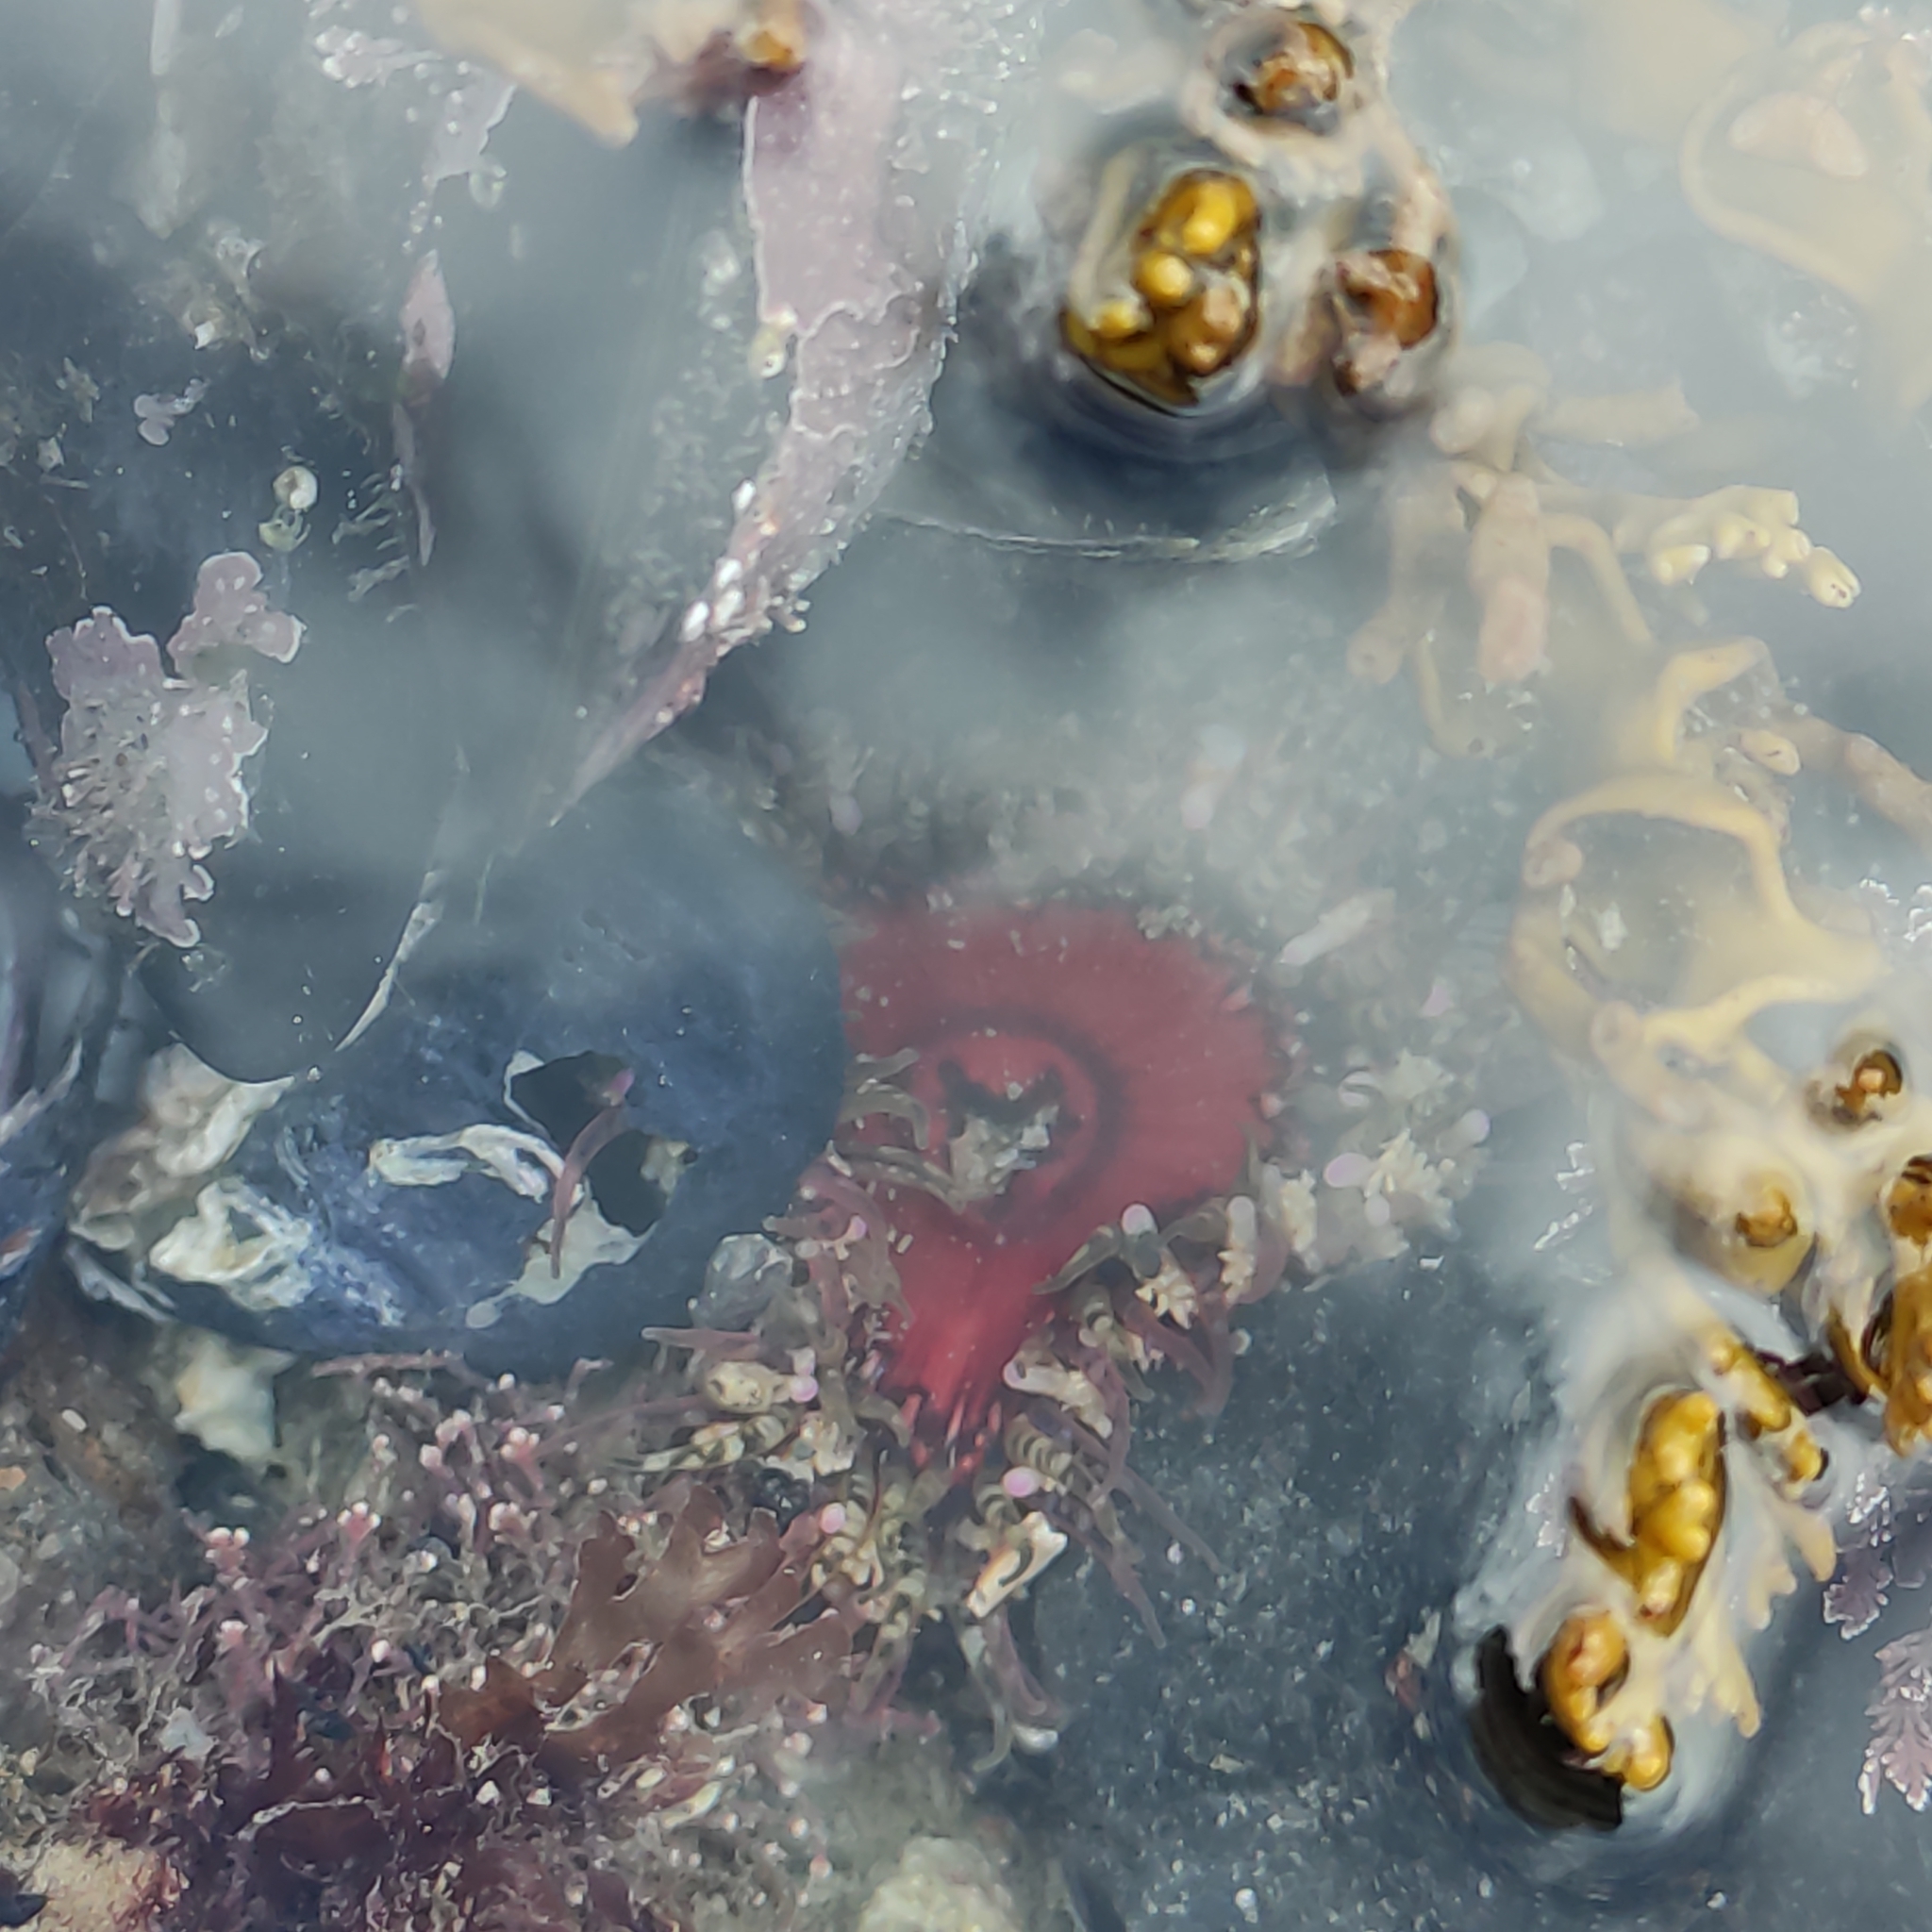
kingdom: Animalia
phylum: Cnidaria
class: Anthozoa
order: Actiniaria
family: Actiniidae
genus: Oulactis
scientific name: Oulactis muscosa
